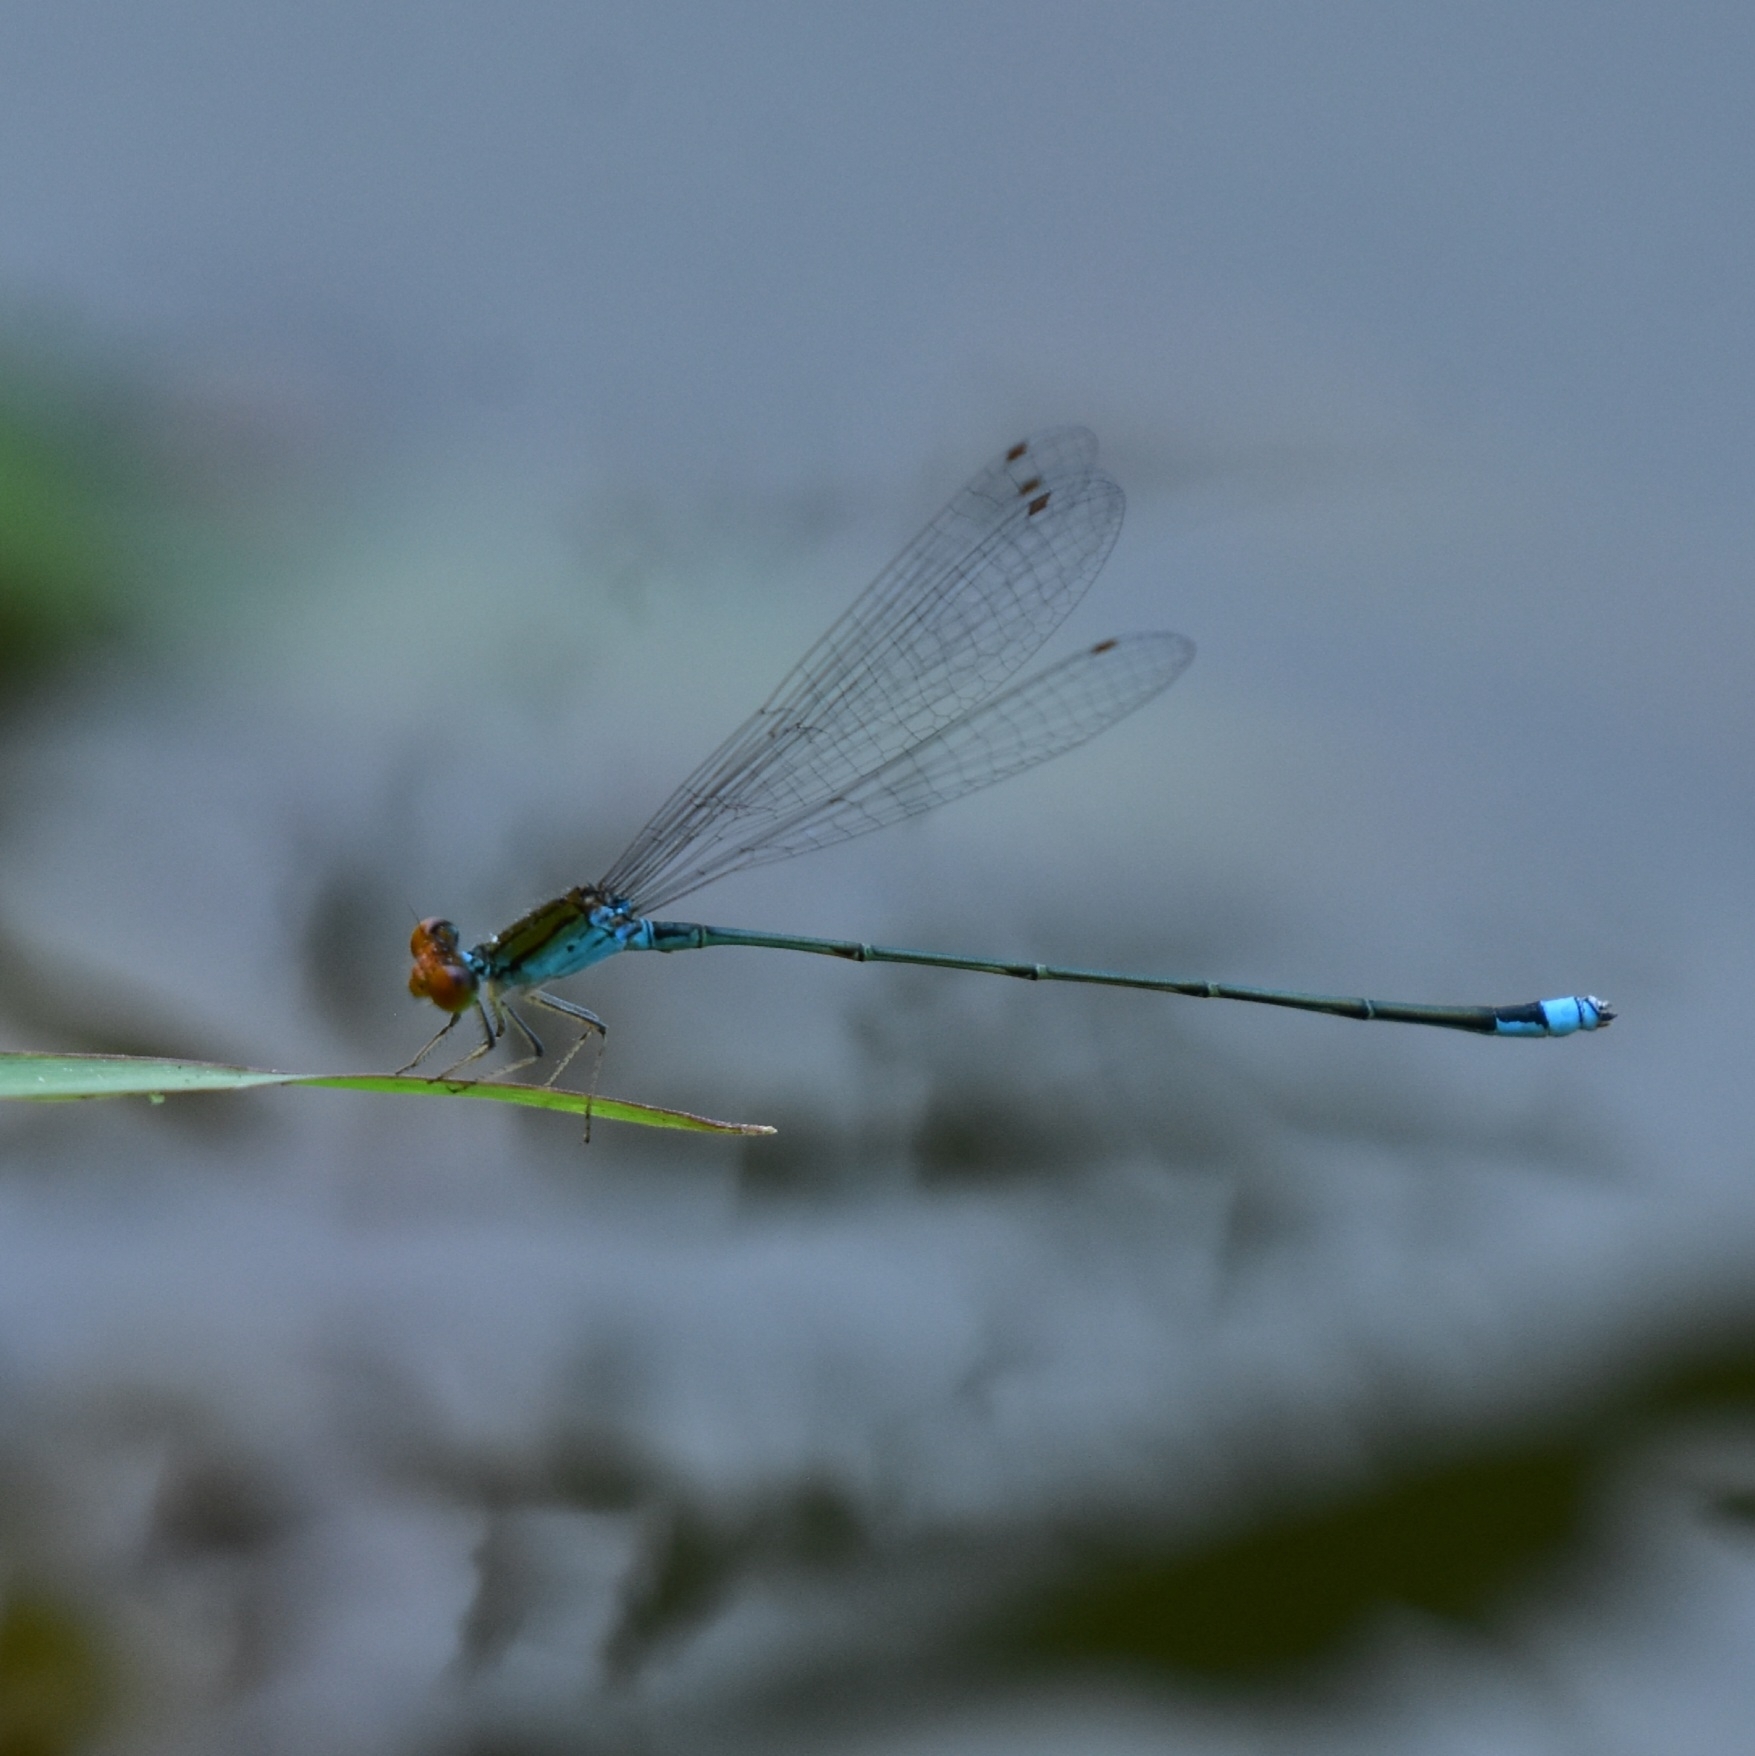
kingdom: Animalia
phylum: Arthropoda
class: Insecta
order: Odonata
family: Coenagrionidae
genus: Pseudagrion
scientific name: Pseudagrion rubriceps
